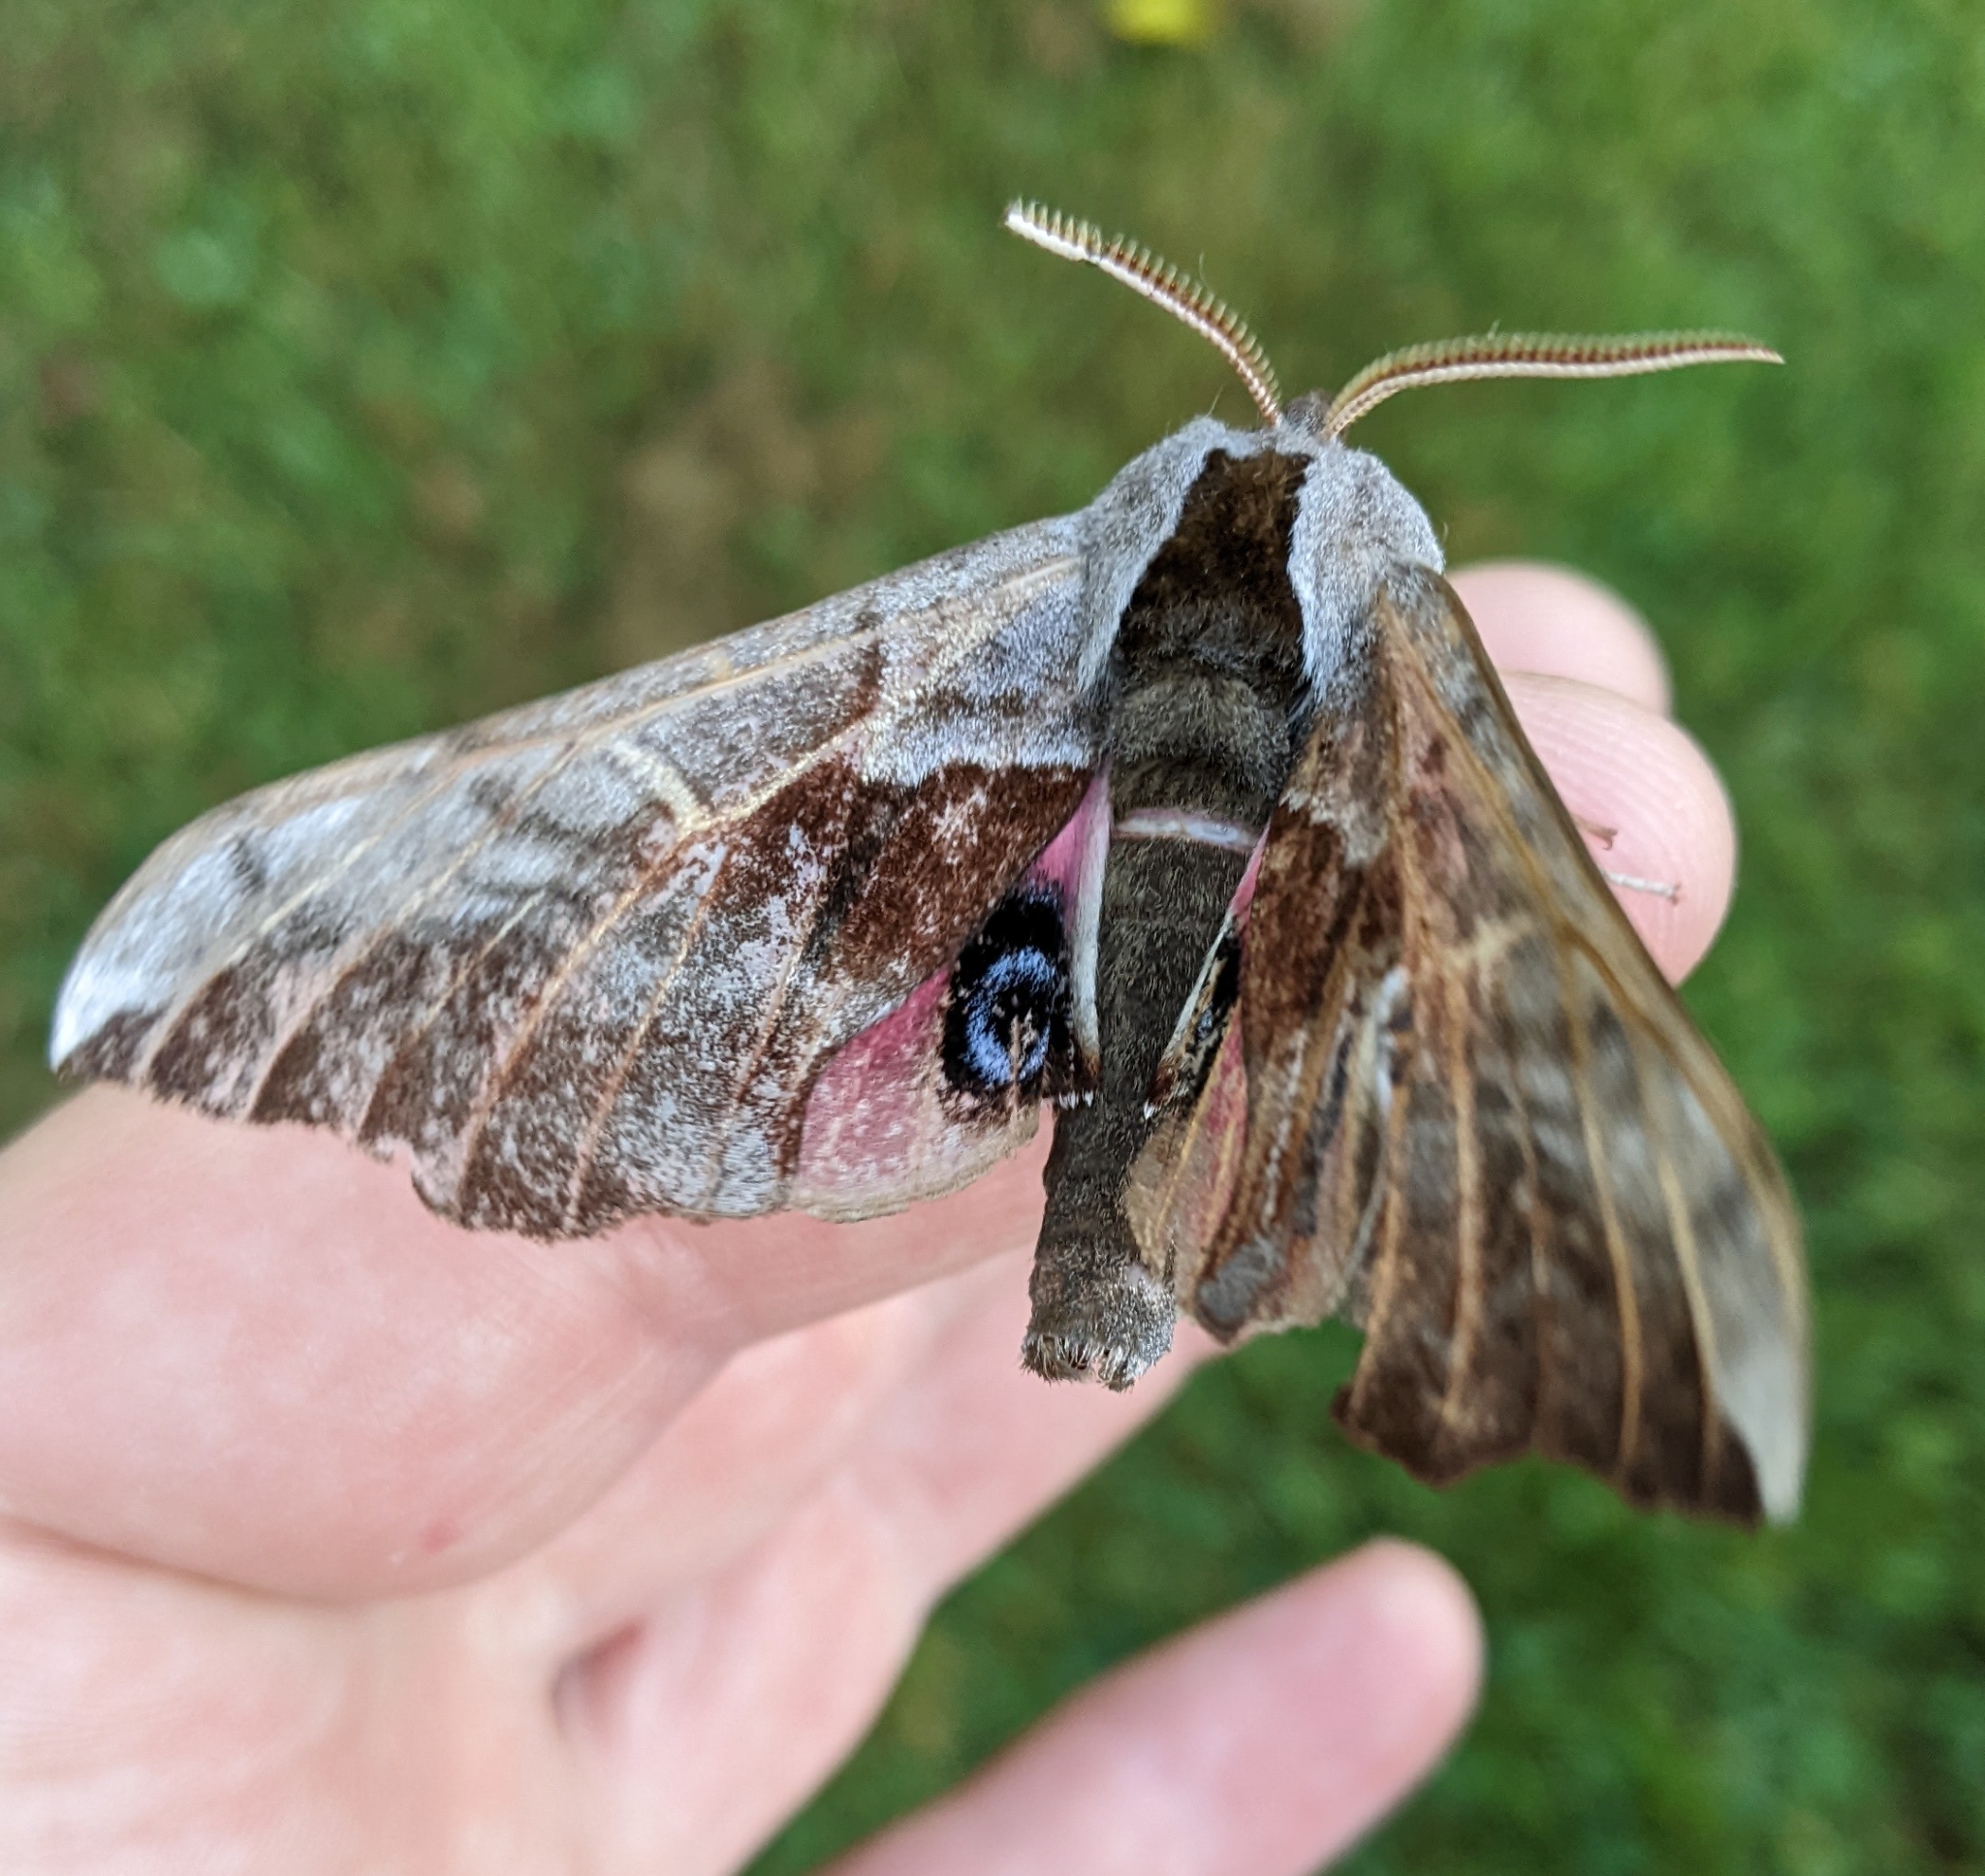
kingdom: Animalia
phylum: Arthropoda
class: Insecta
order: Lepidoptera
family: Sphingidae
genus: Smerinthus
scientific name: Smerinthus cerisyi
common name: Cerisy's sphinx moth
